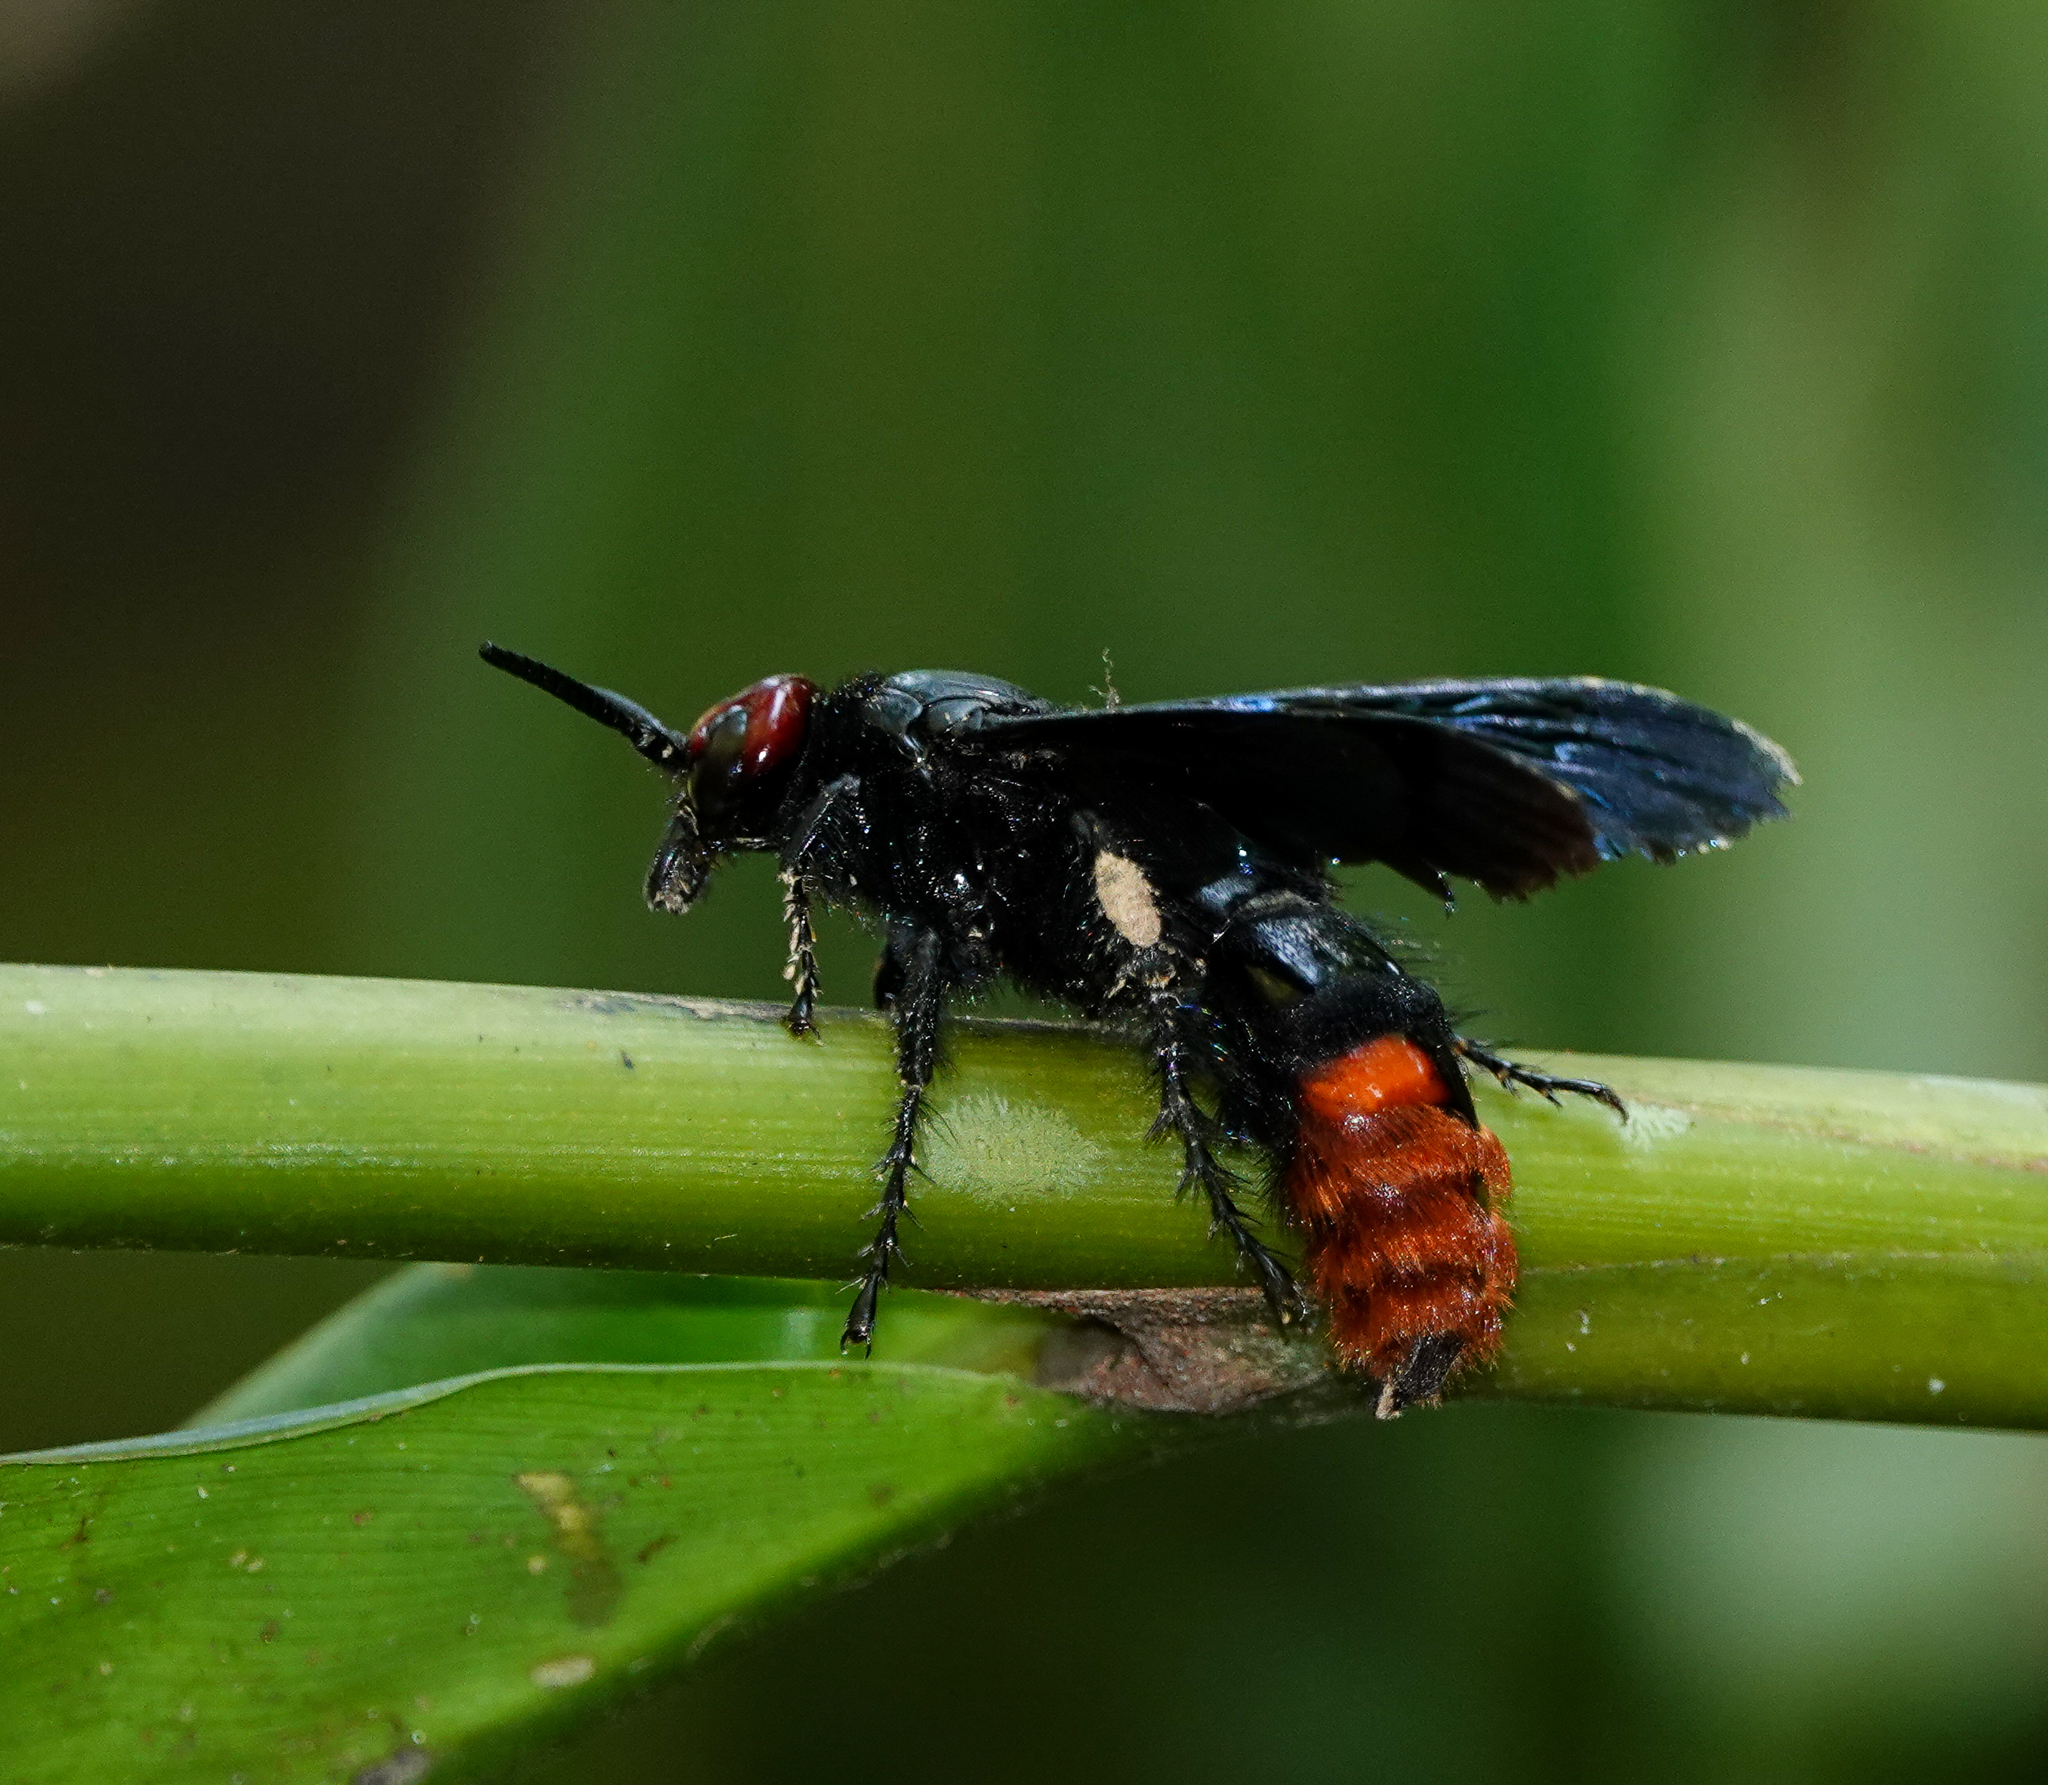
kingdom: Animalia
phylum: Arthropoda
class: Insecta
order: Hymenoptera
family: Scoliidae
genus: Megascolia
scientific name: Megascolia azurea
